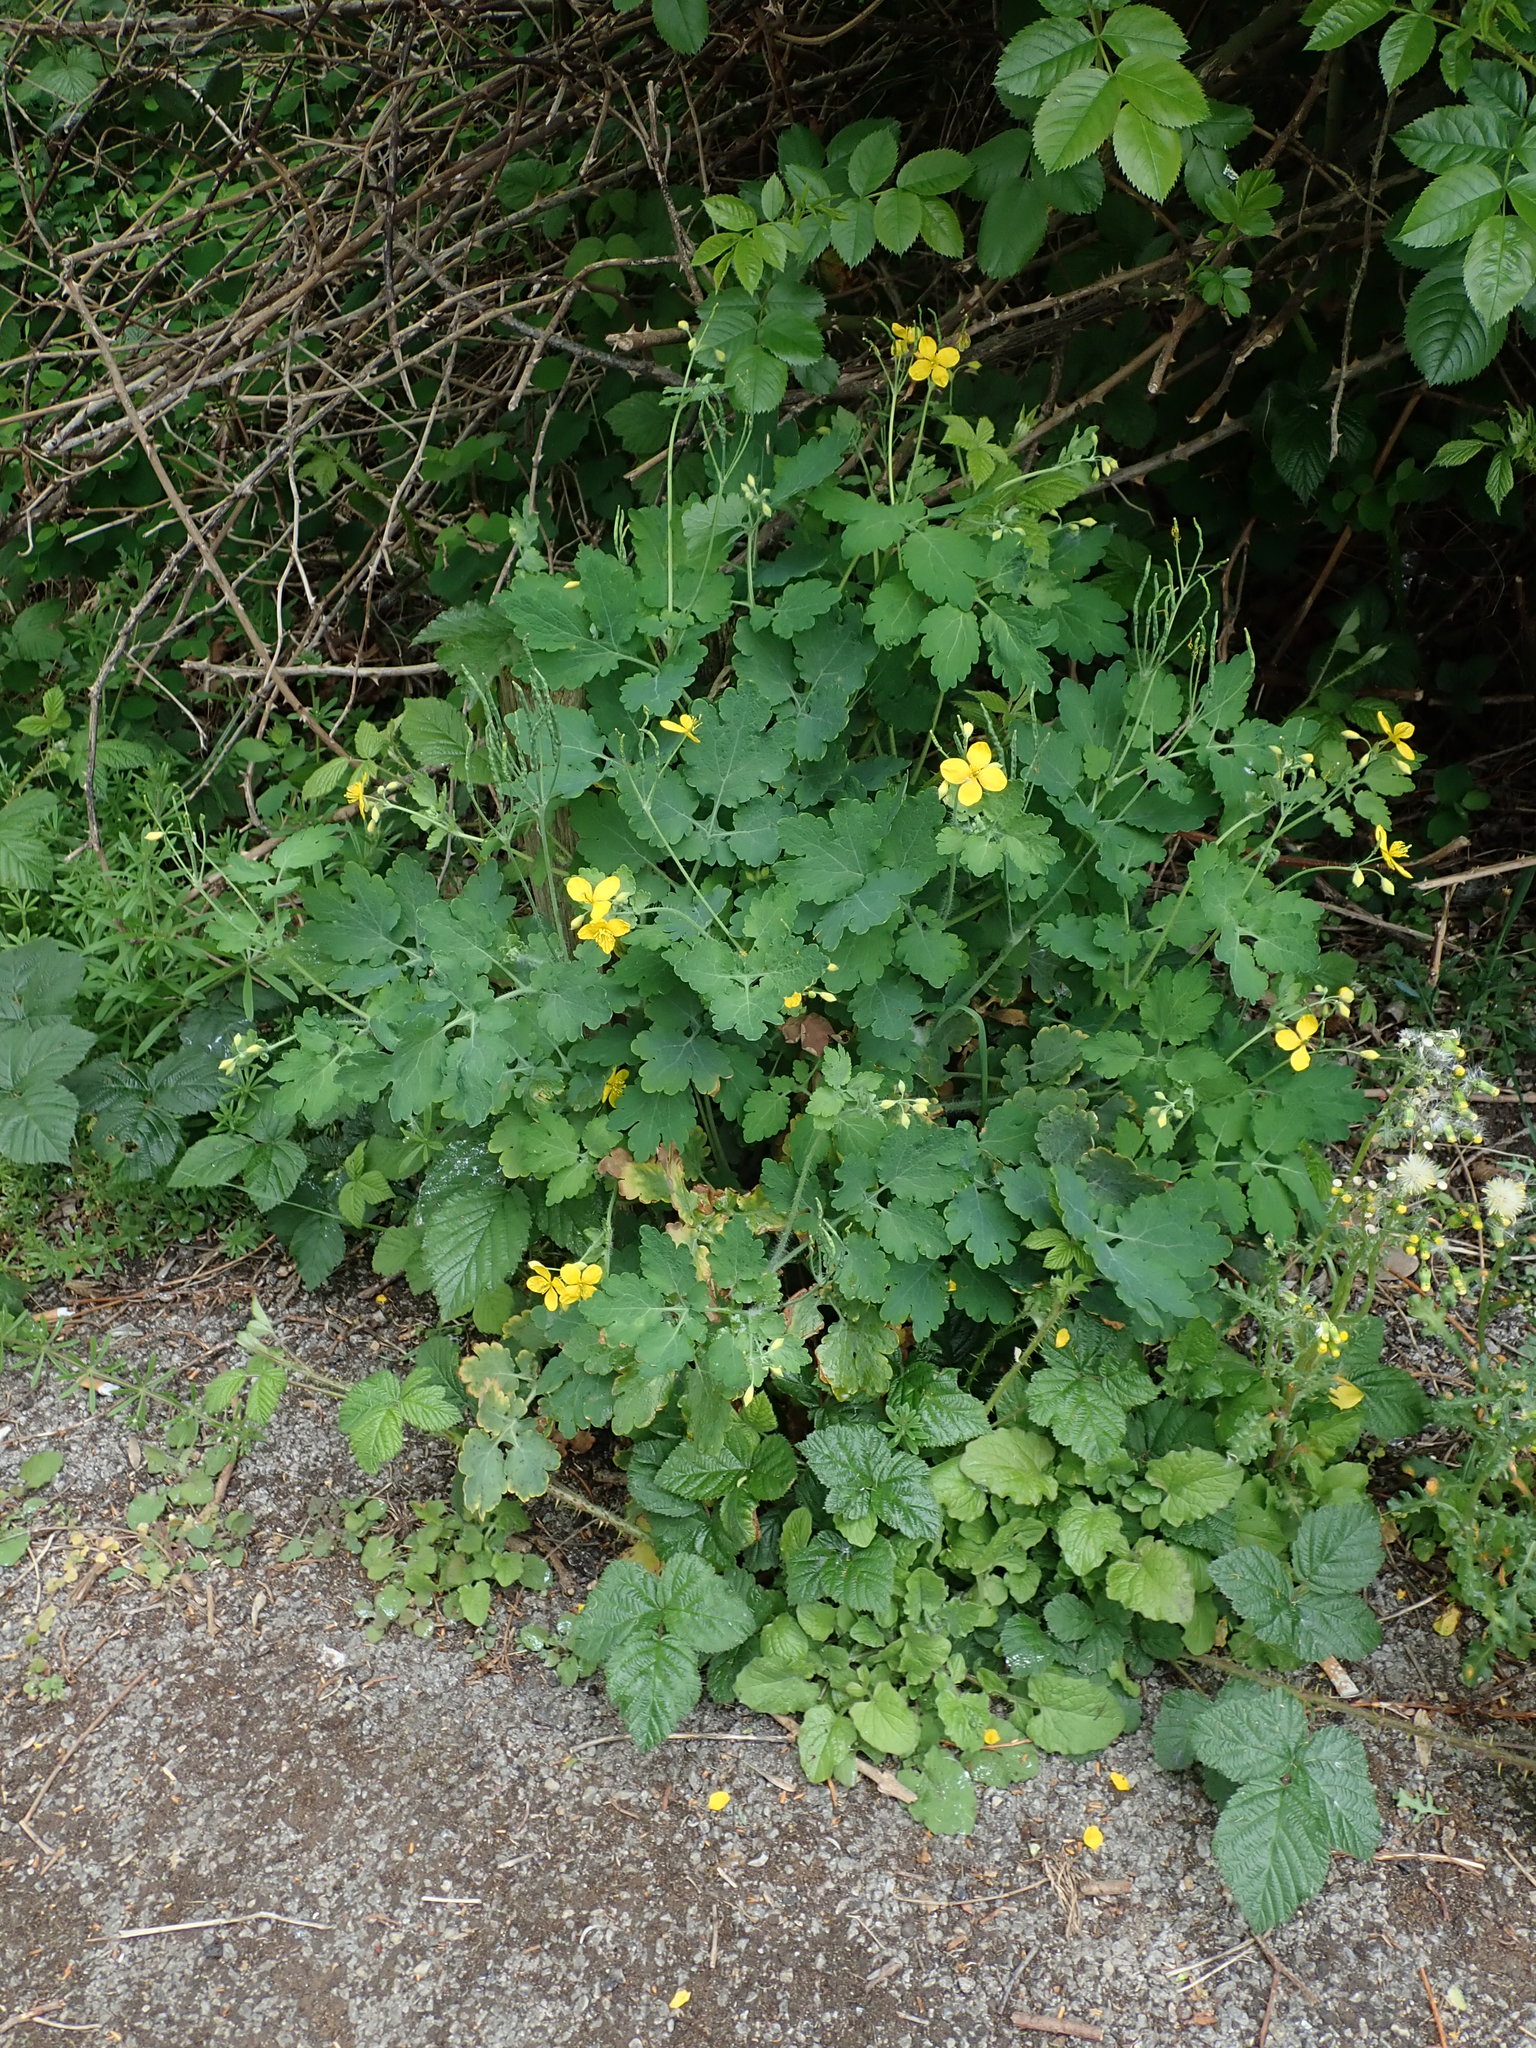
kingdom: Plantae
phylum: Tracheophyta
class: Magnoliopsida
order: Ranunculales
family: Papaveraceae
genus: Chelidonium
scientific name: Chelidonium majus
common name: Greater celandine
